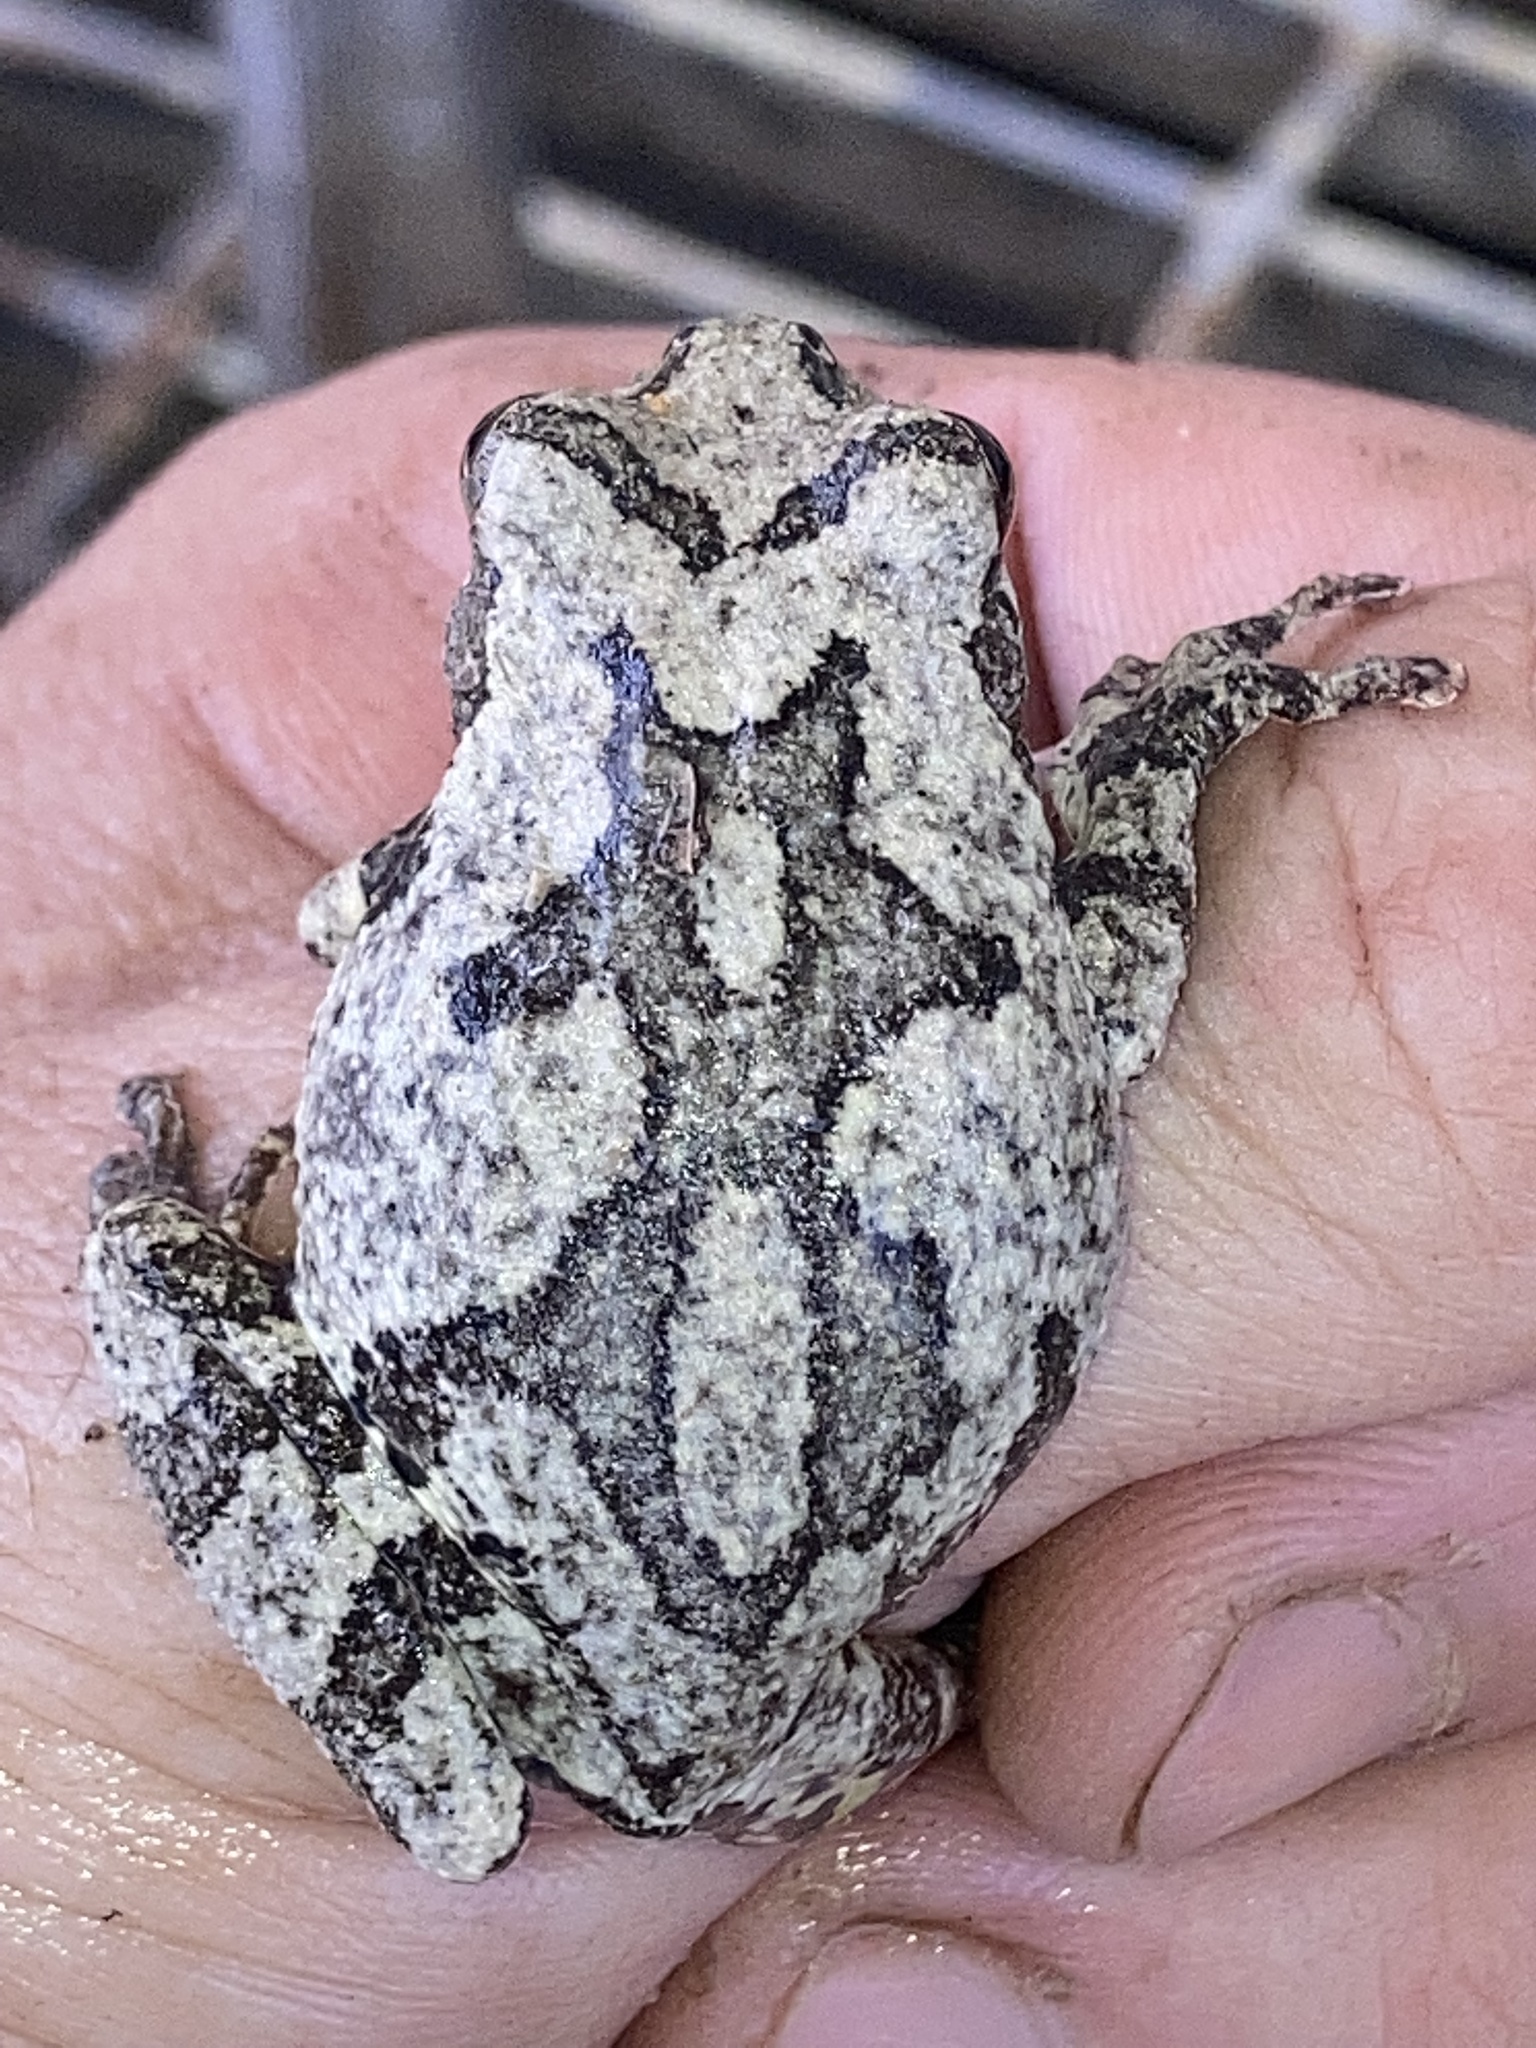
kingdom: Animalia
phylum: Chordata
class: Amphibia
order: Anura
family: Hylidae
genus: Dryophytes
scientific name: Dryophytes chrysoscelis
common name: Cope's gray treefrog
